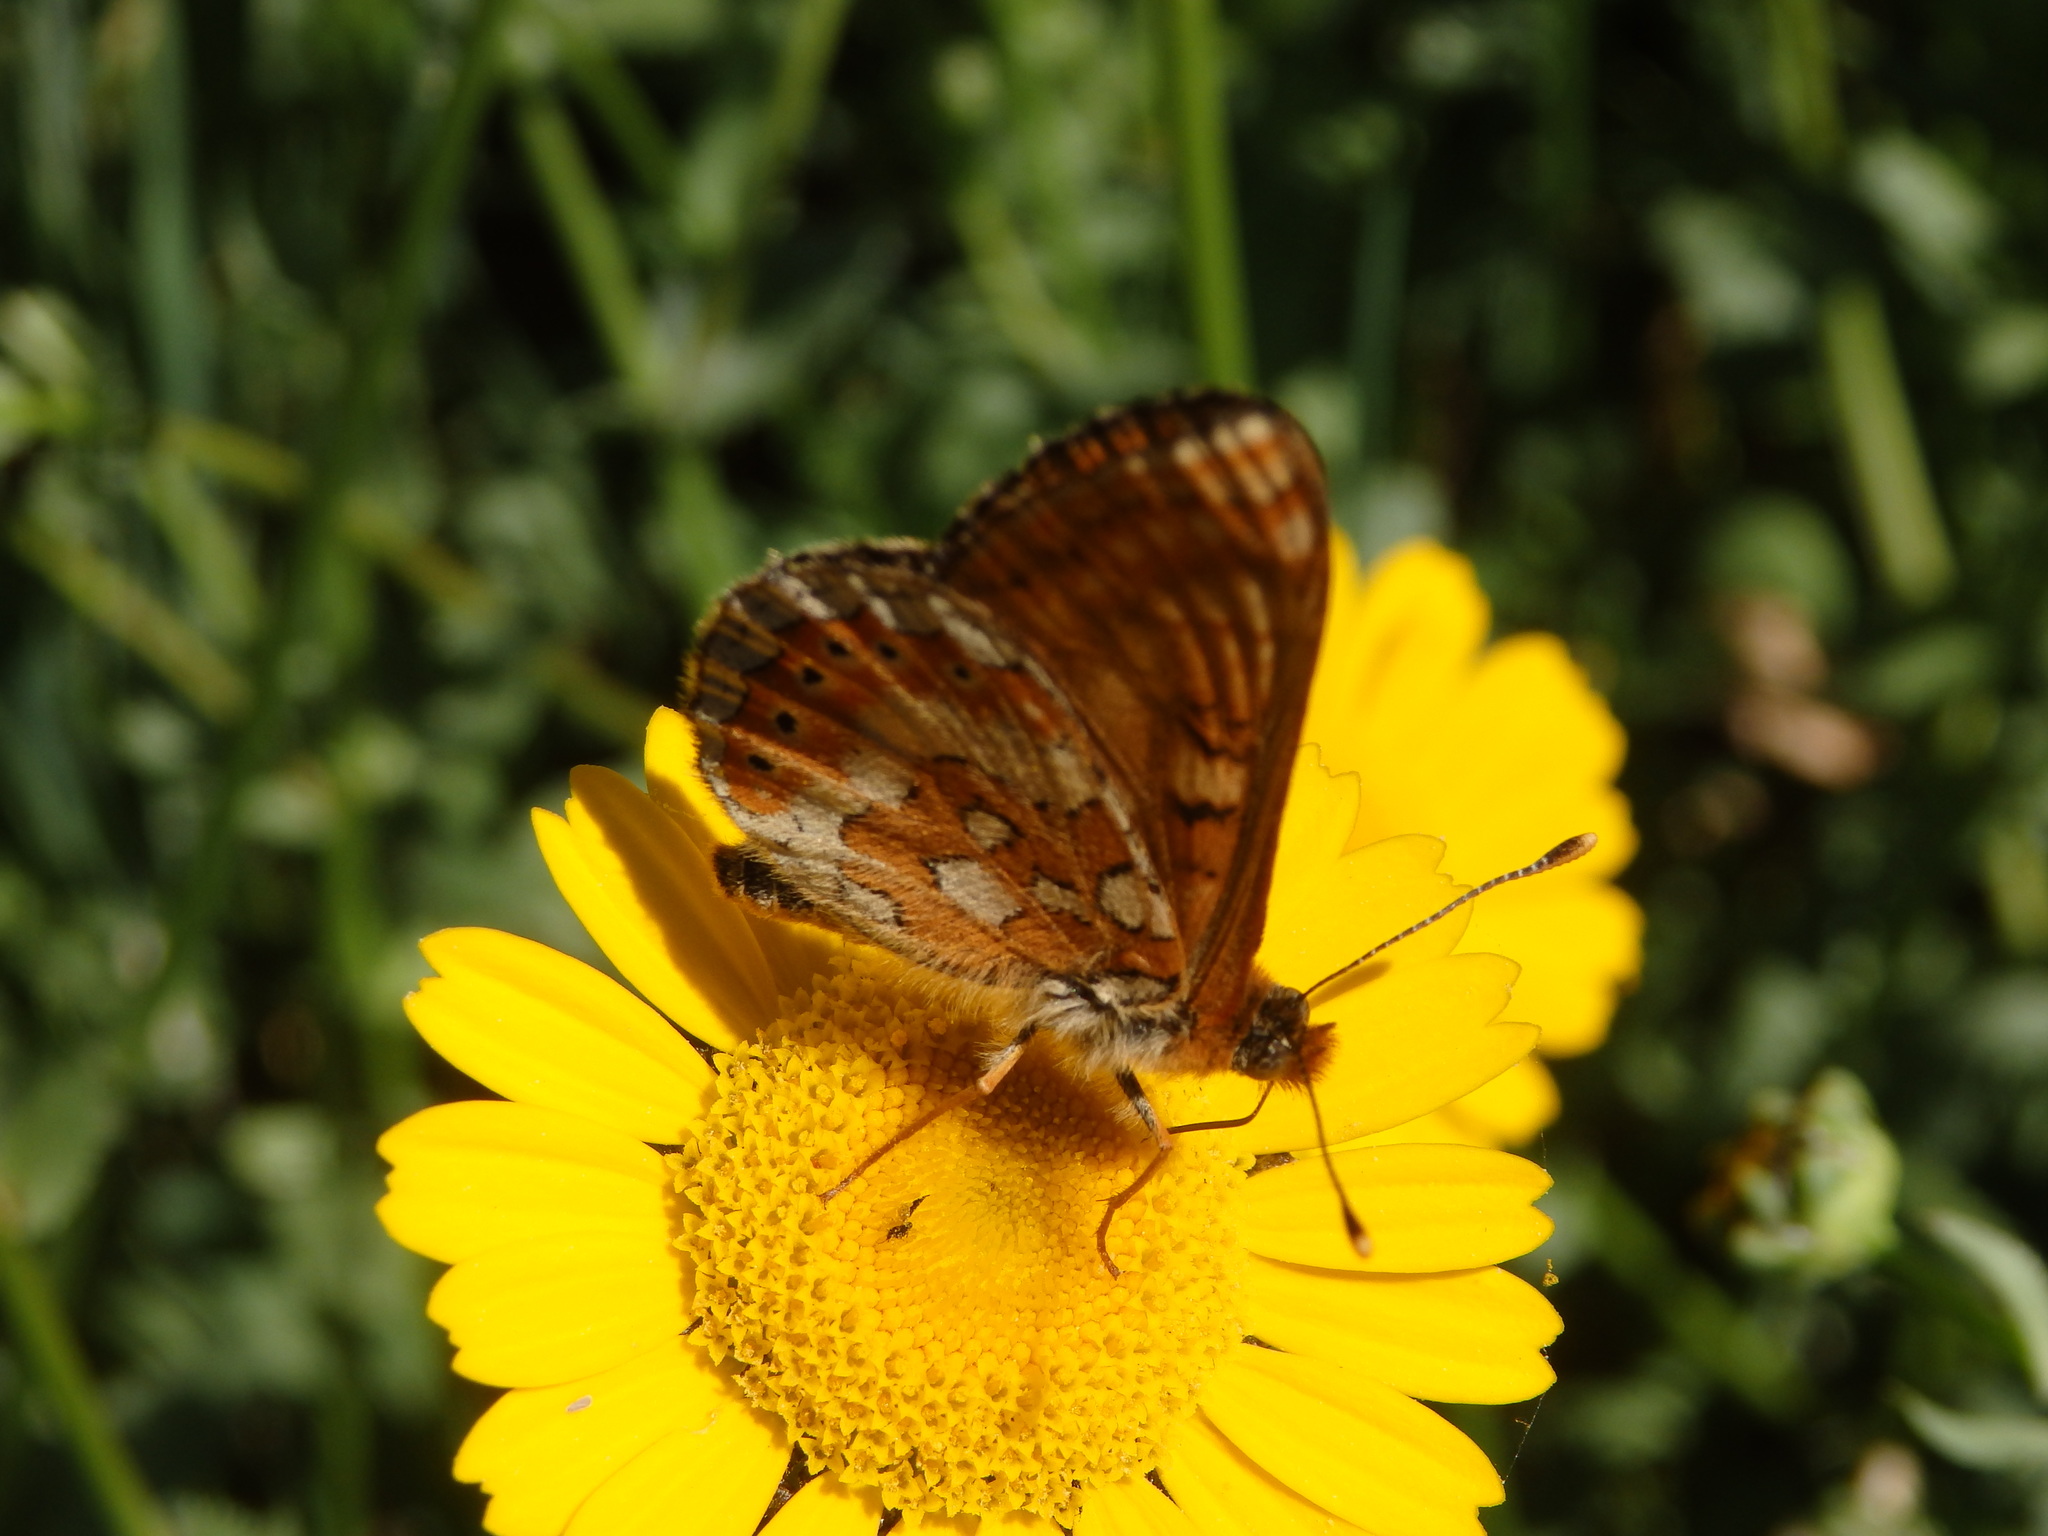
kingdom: Animalia
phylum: Arthropoda
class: Insecta
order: Lepidoptera
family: Nymphalidae
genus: Euphydryas
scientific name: Euphydryas aurinia
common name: Marsh fritillary
